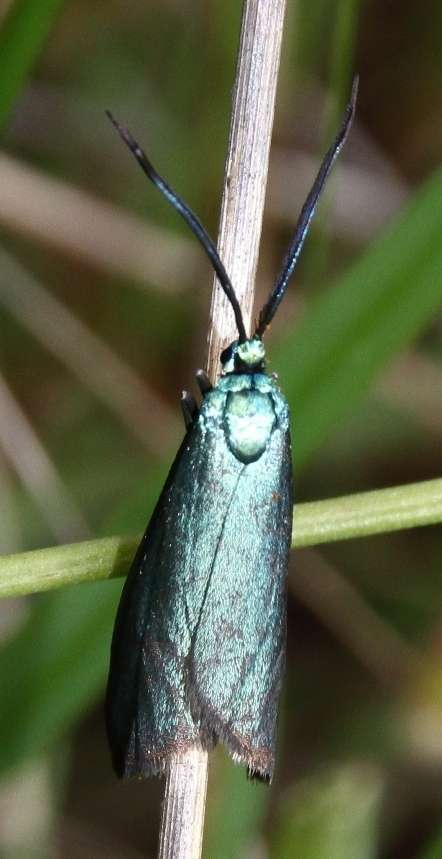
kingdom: Animalia
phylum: Arthropoda
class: Insecta
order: Lepidoptera
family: Zygaenidae
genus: Pollanisus
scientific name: Pollanisus viridipulverulenta
